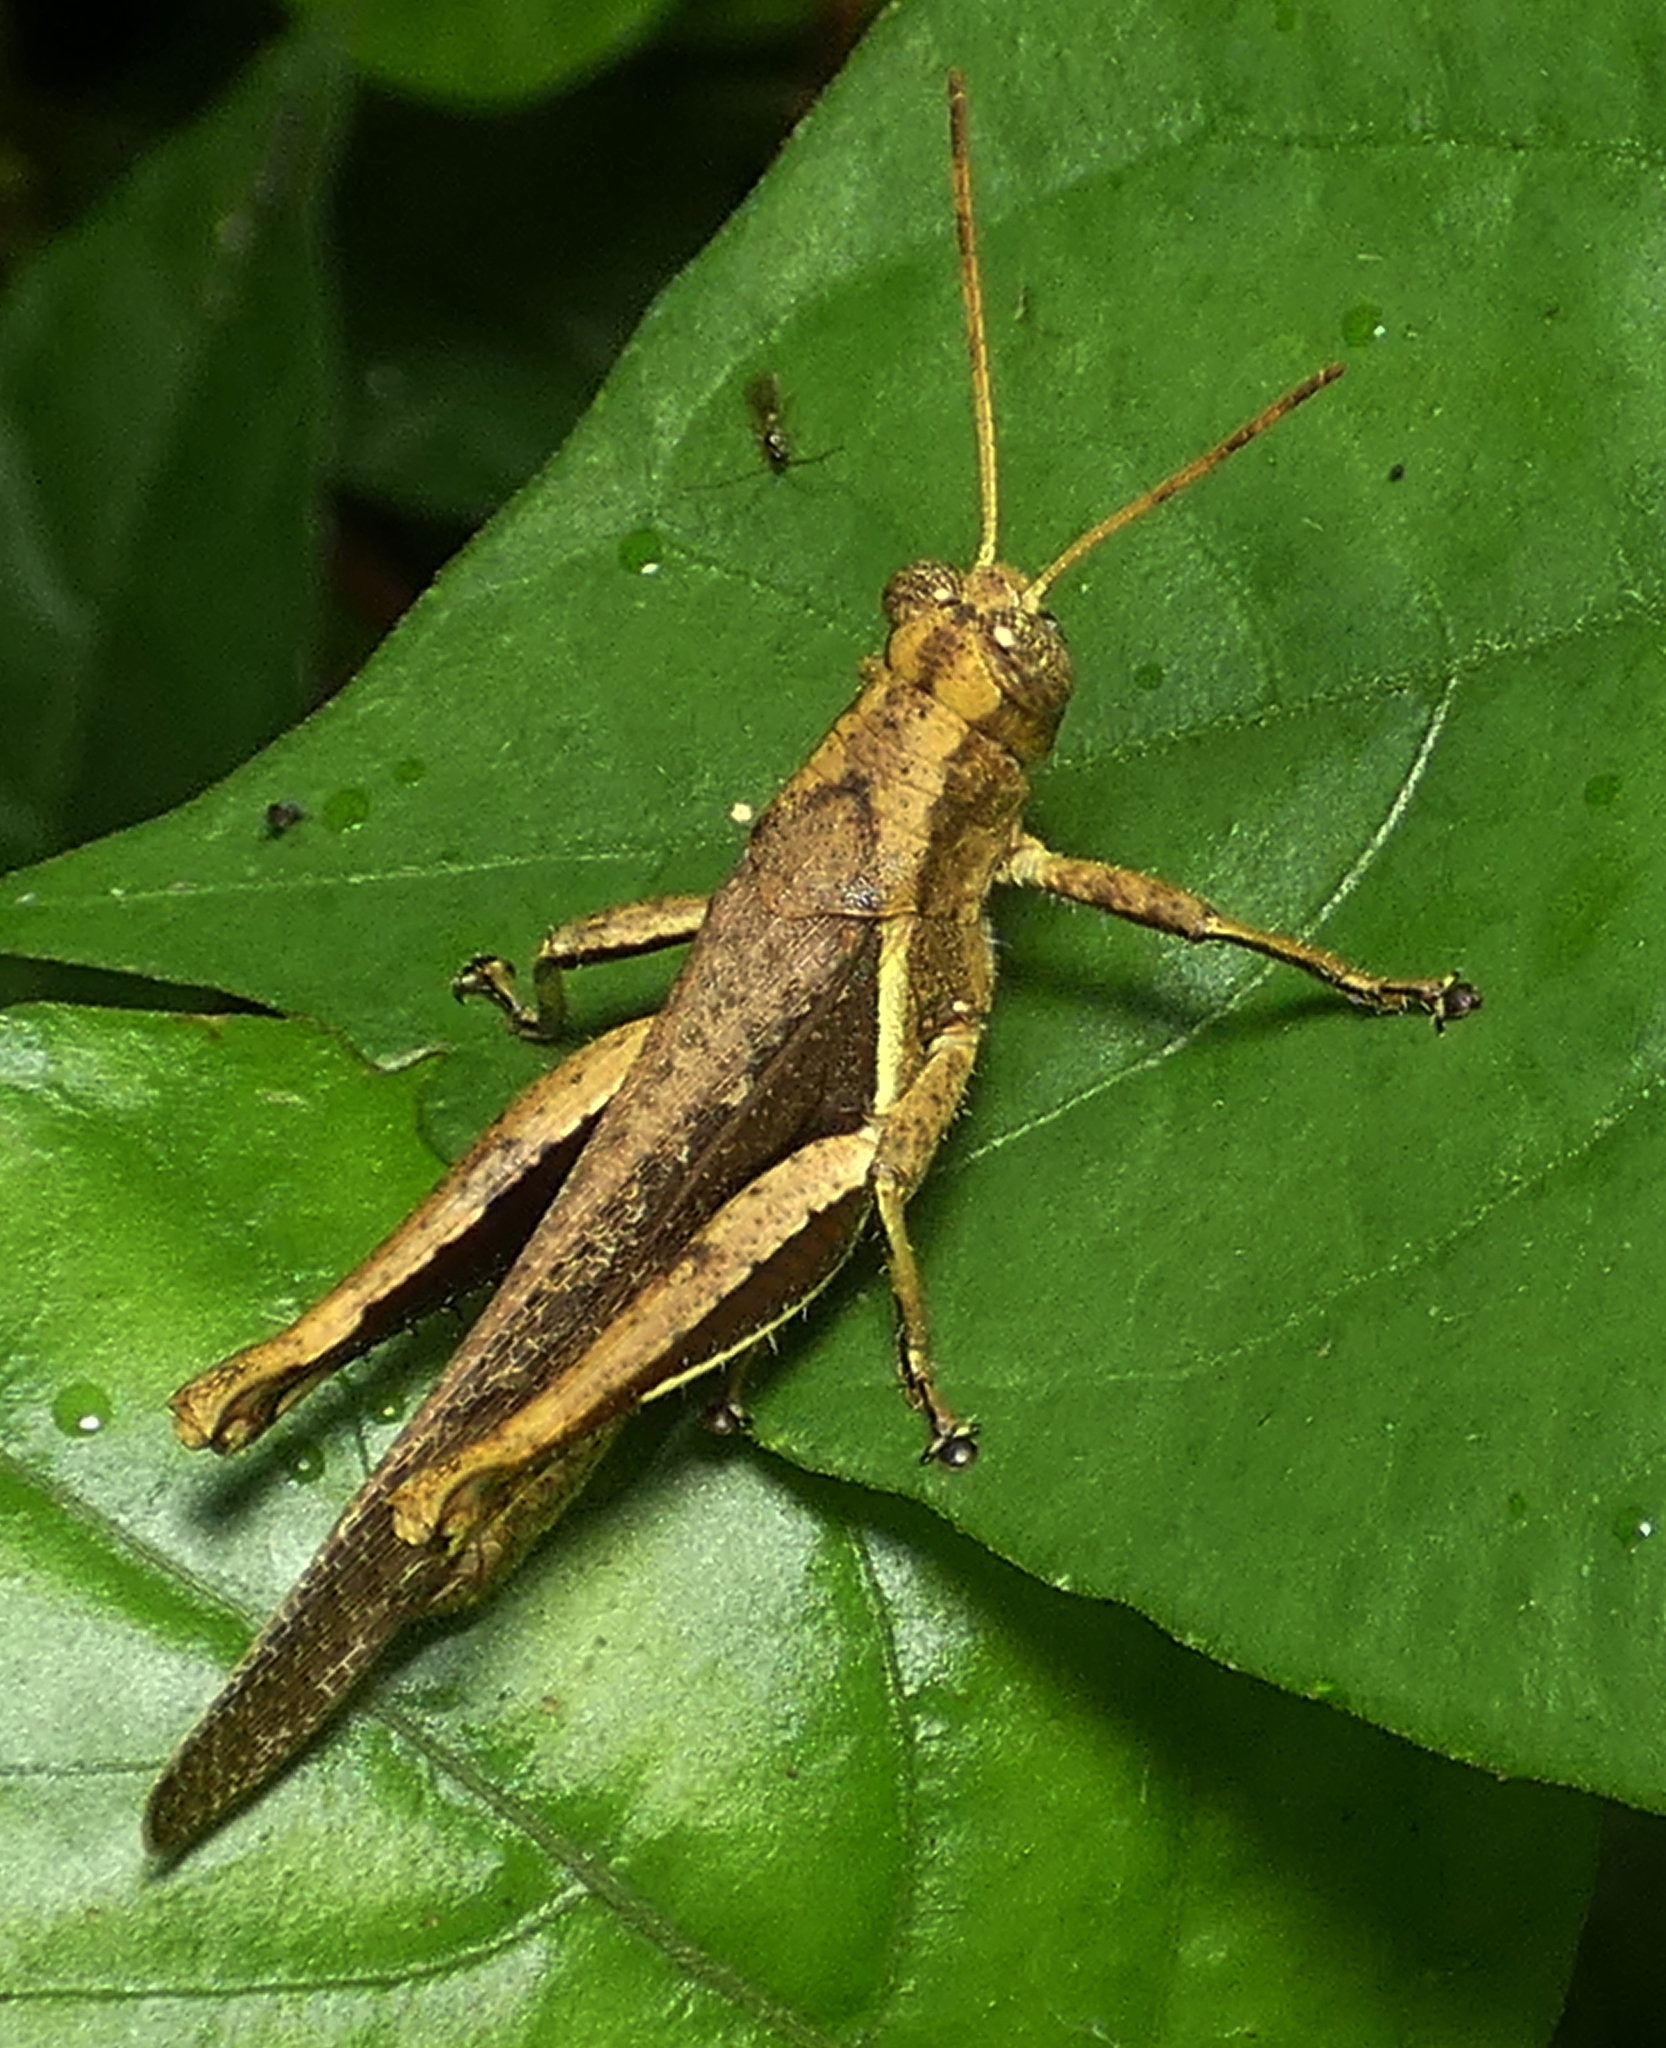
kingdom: Animalia
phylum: Arthropoda
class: Insecta
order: Orthoptera
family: Acrididae
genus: Abracris
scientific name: Abracris flavolineata
